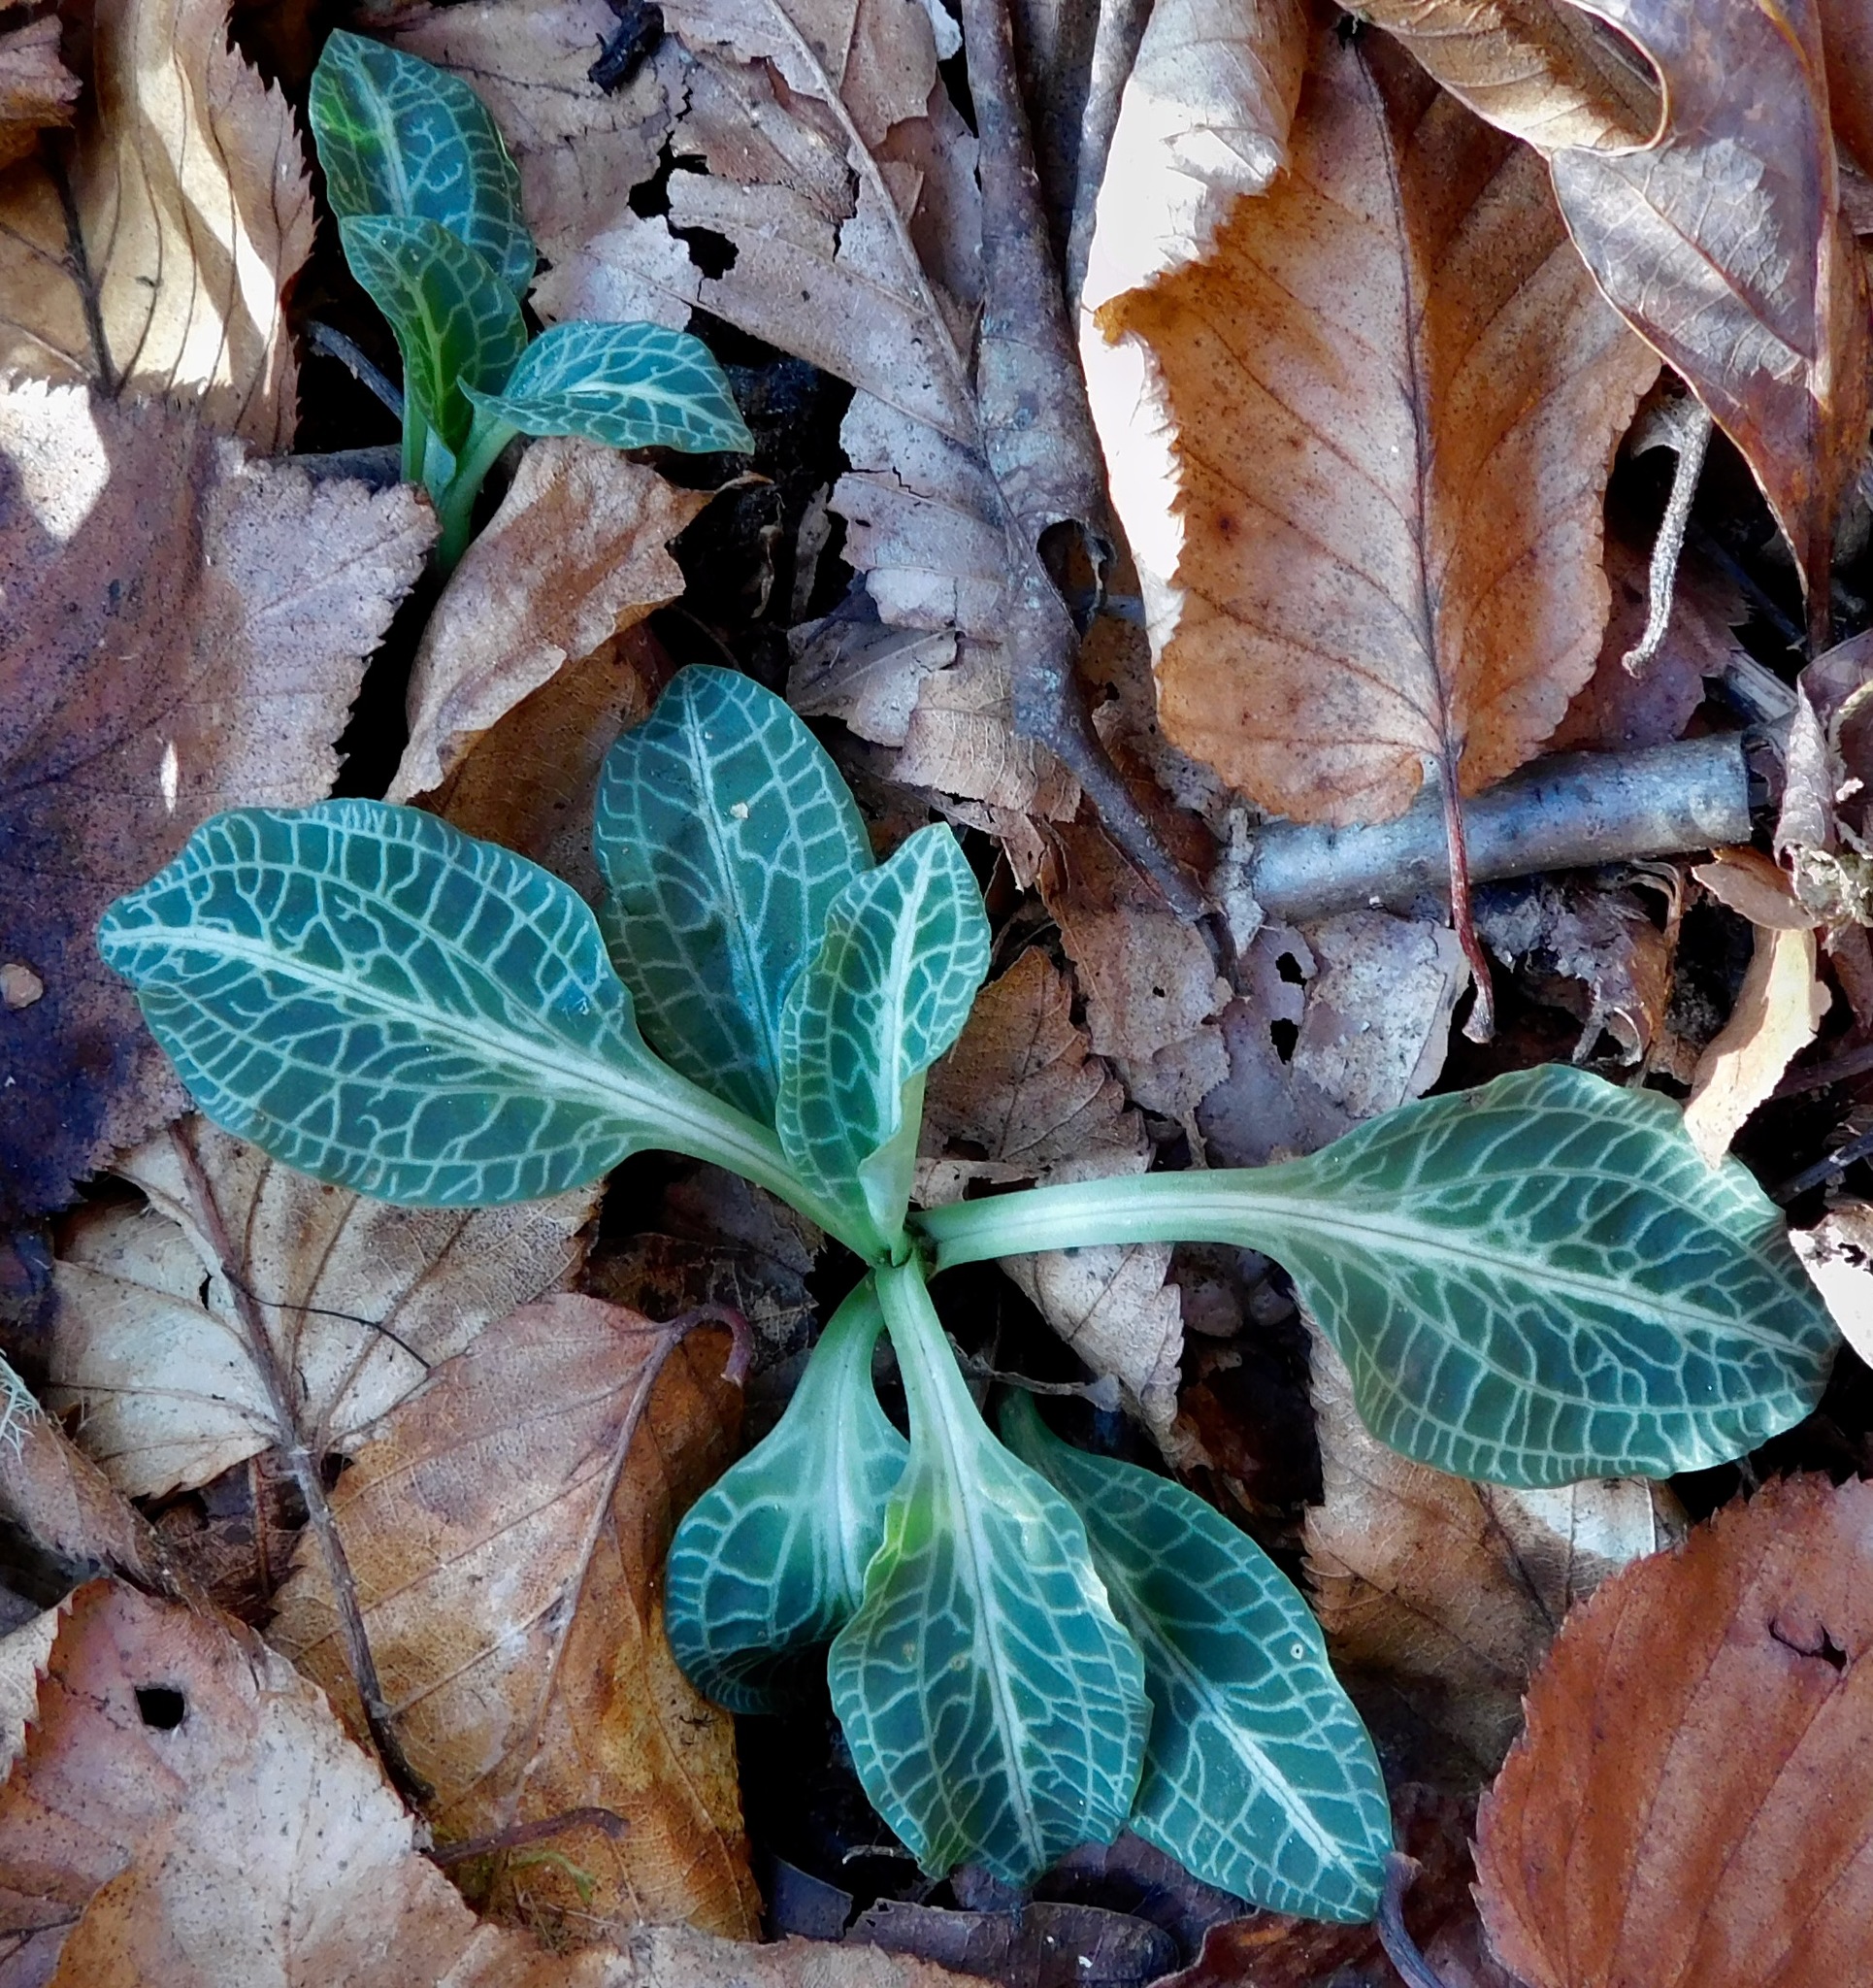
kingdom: Plantae
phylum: Tracheophyta
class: Liliopsida
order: Asparagales
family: Orchidaceae
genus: Goodyera
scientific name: Goodyera pubescens
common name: Downy rattlesnake-plantain
